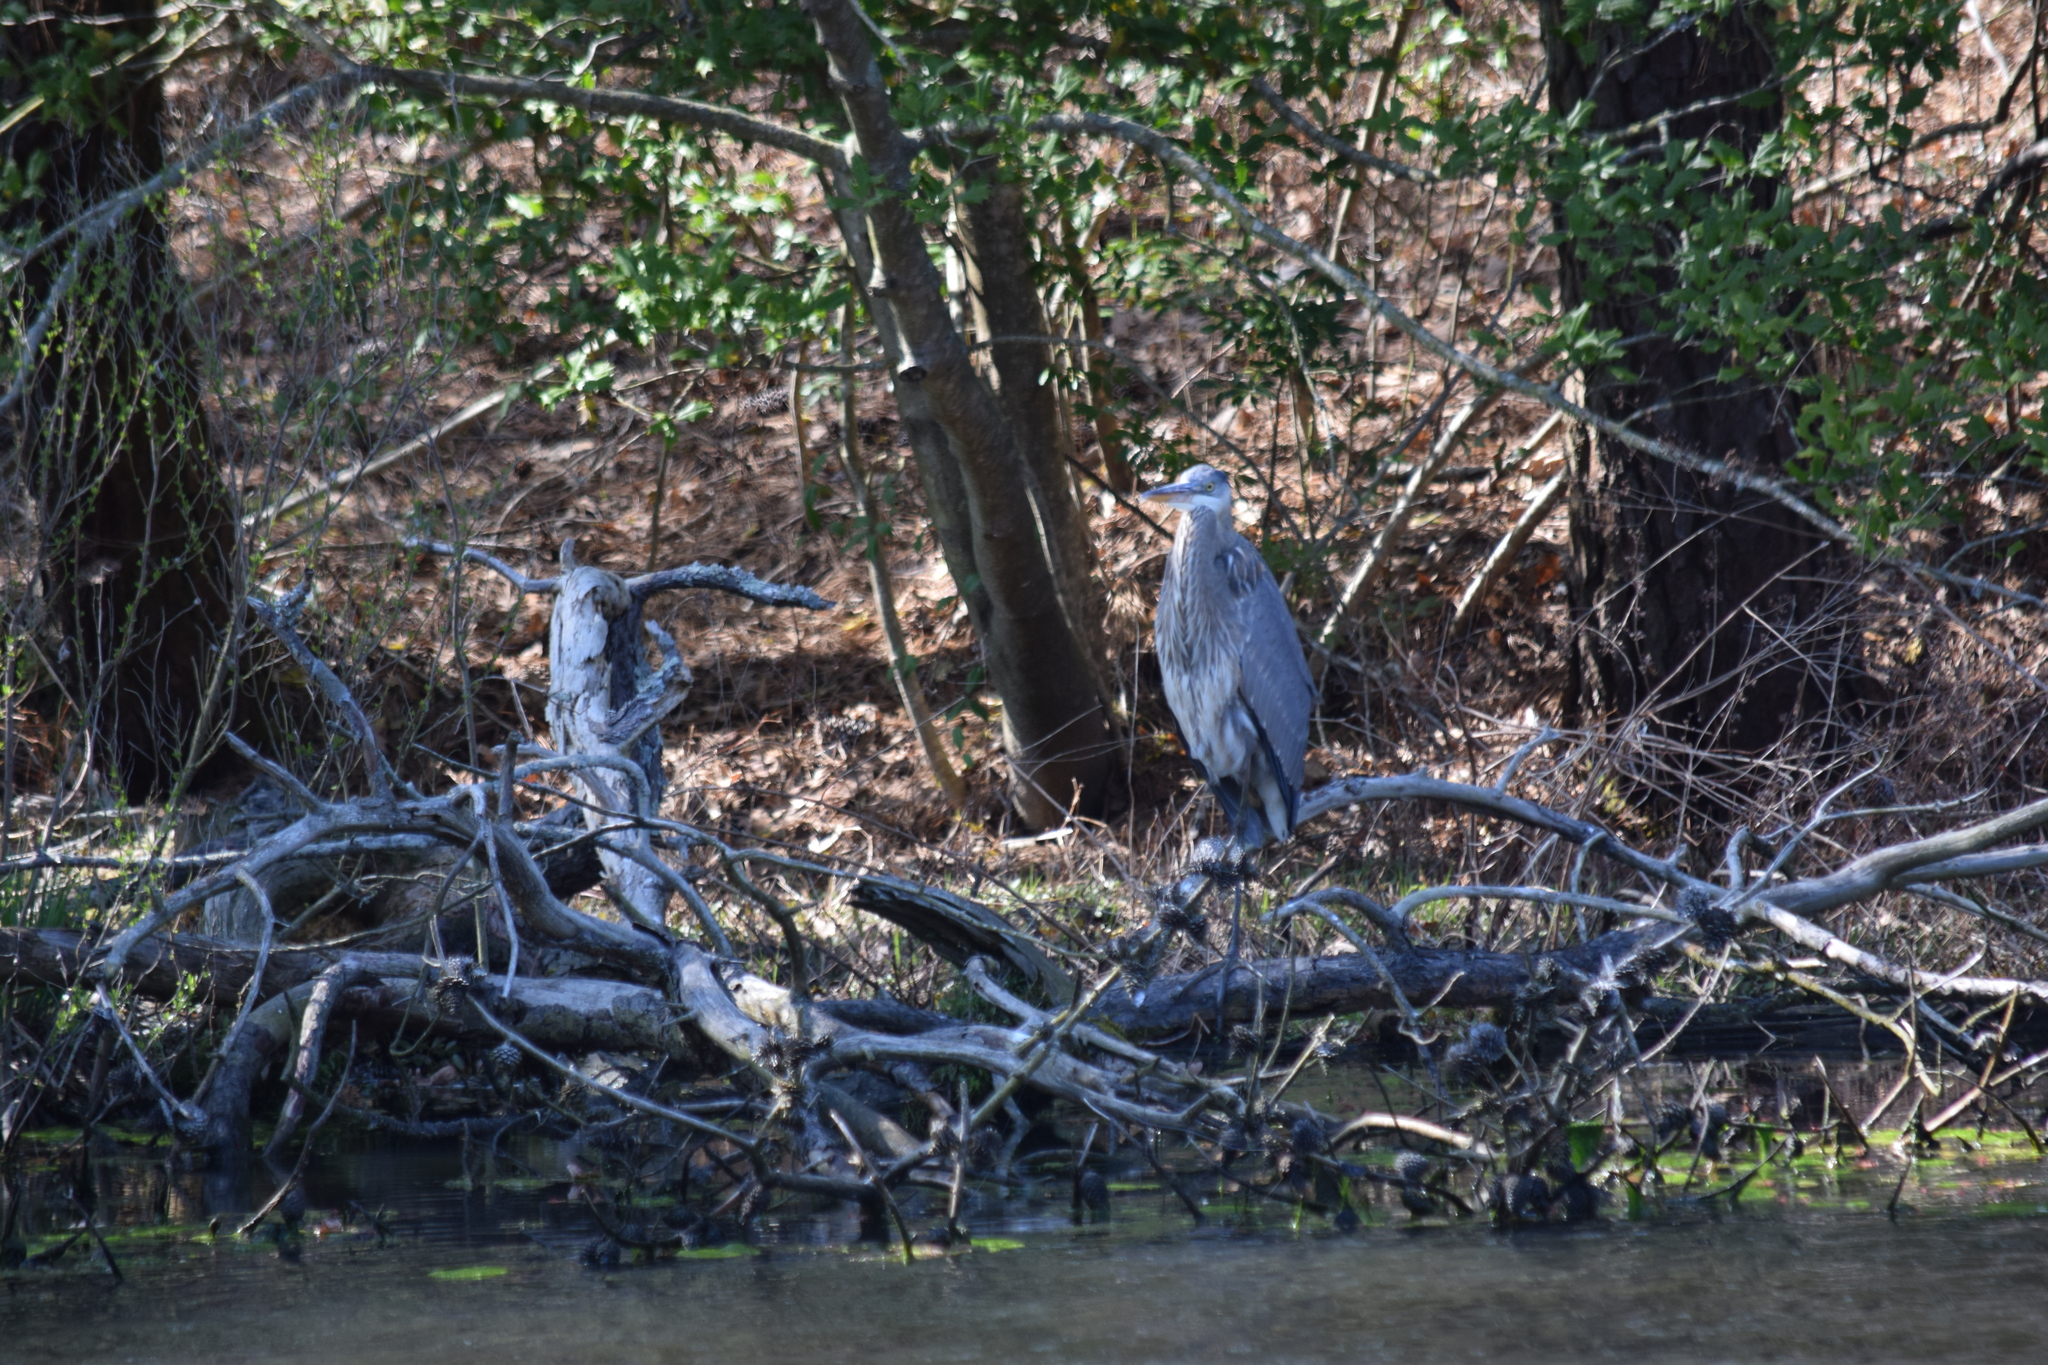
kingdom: Animalia
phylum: Chordata
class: Aves
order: Pelecaniformes
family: Ardeidae
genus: Ardea
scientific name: Ardea herodias
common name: Great blue heron
